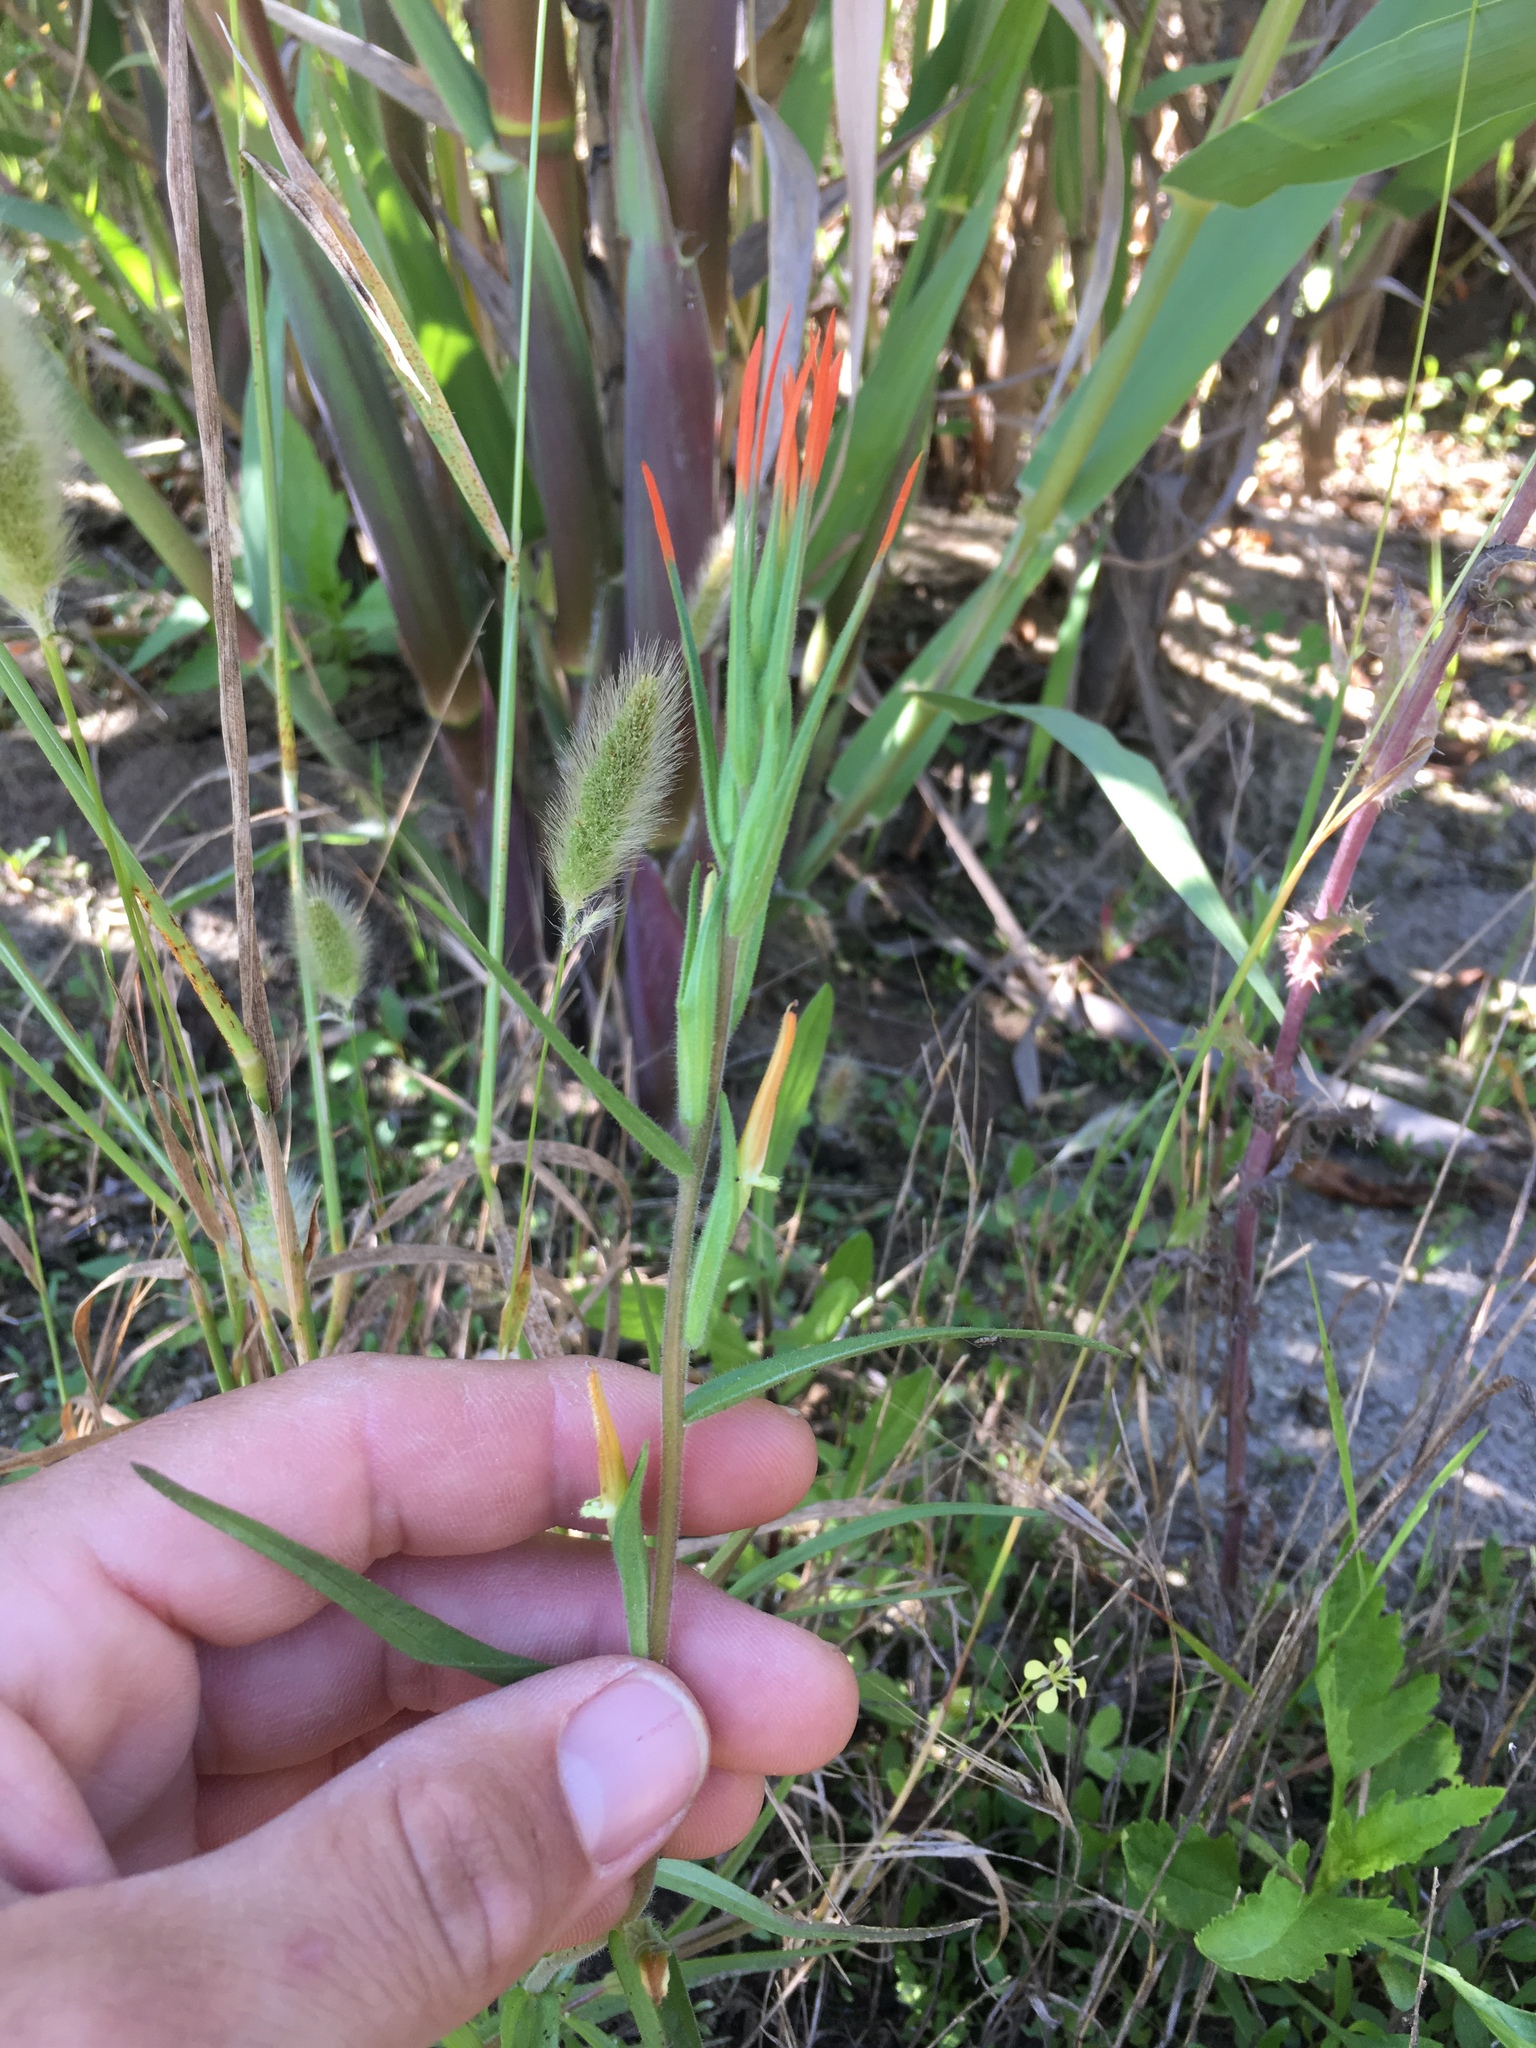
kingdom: Plantae
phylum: Tracheophyta
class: Magnoliopsida
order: Lamiales
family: Orobanchaceae
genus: Castilleja
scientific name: Castilleja minor
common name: Seep paintbrush
